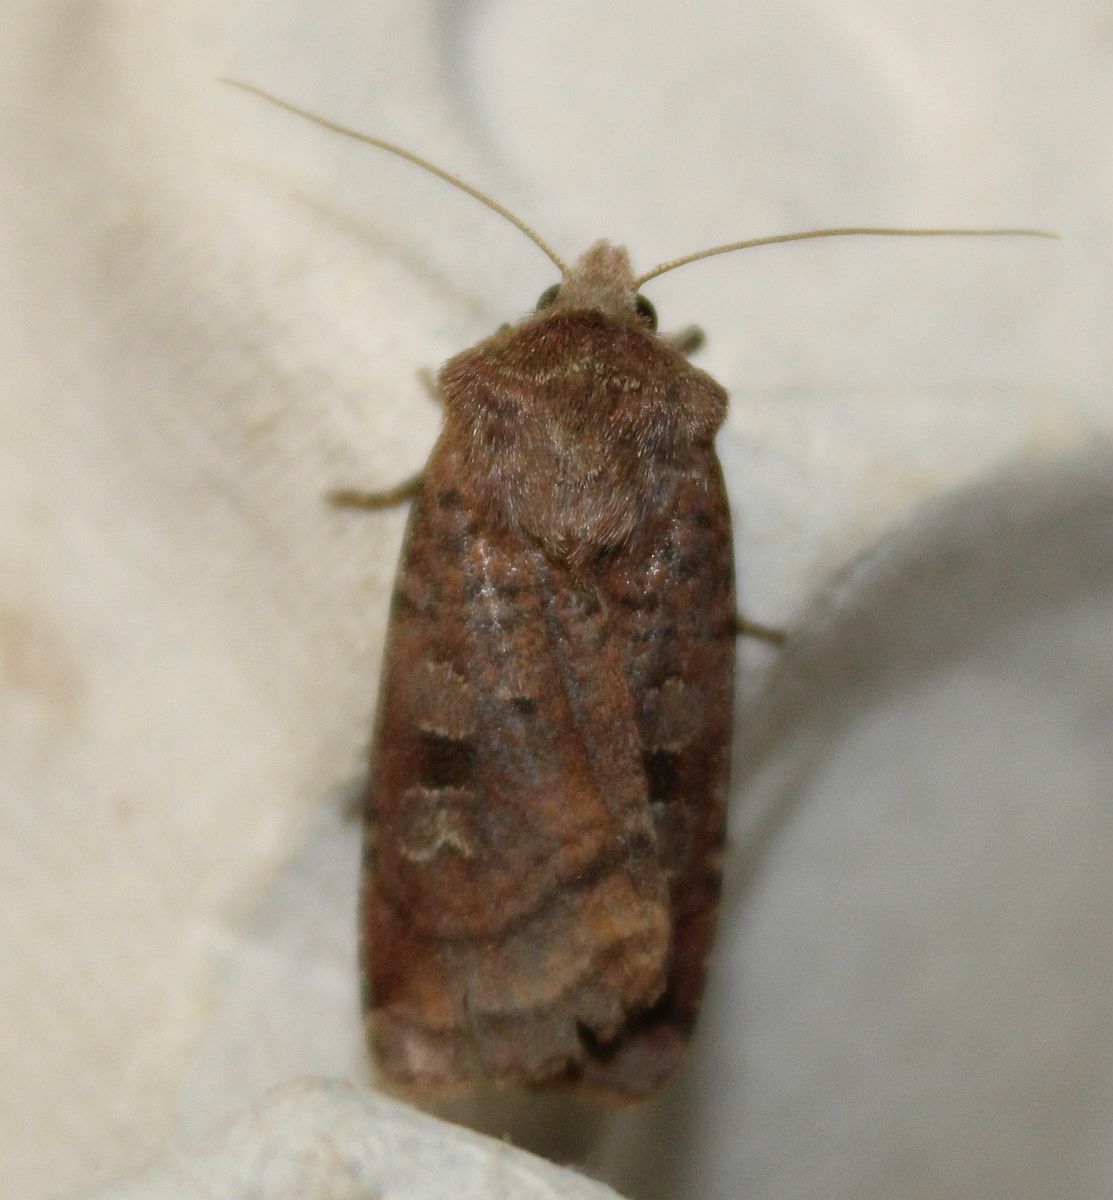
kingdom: Animalia
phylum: Arthropoda
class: Insecta
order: Lepidoptera
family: Noctuidae
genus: Diarsia
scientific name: Diarsia rubi
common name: Small square-spot
